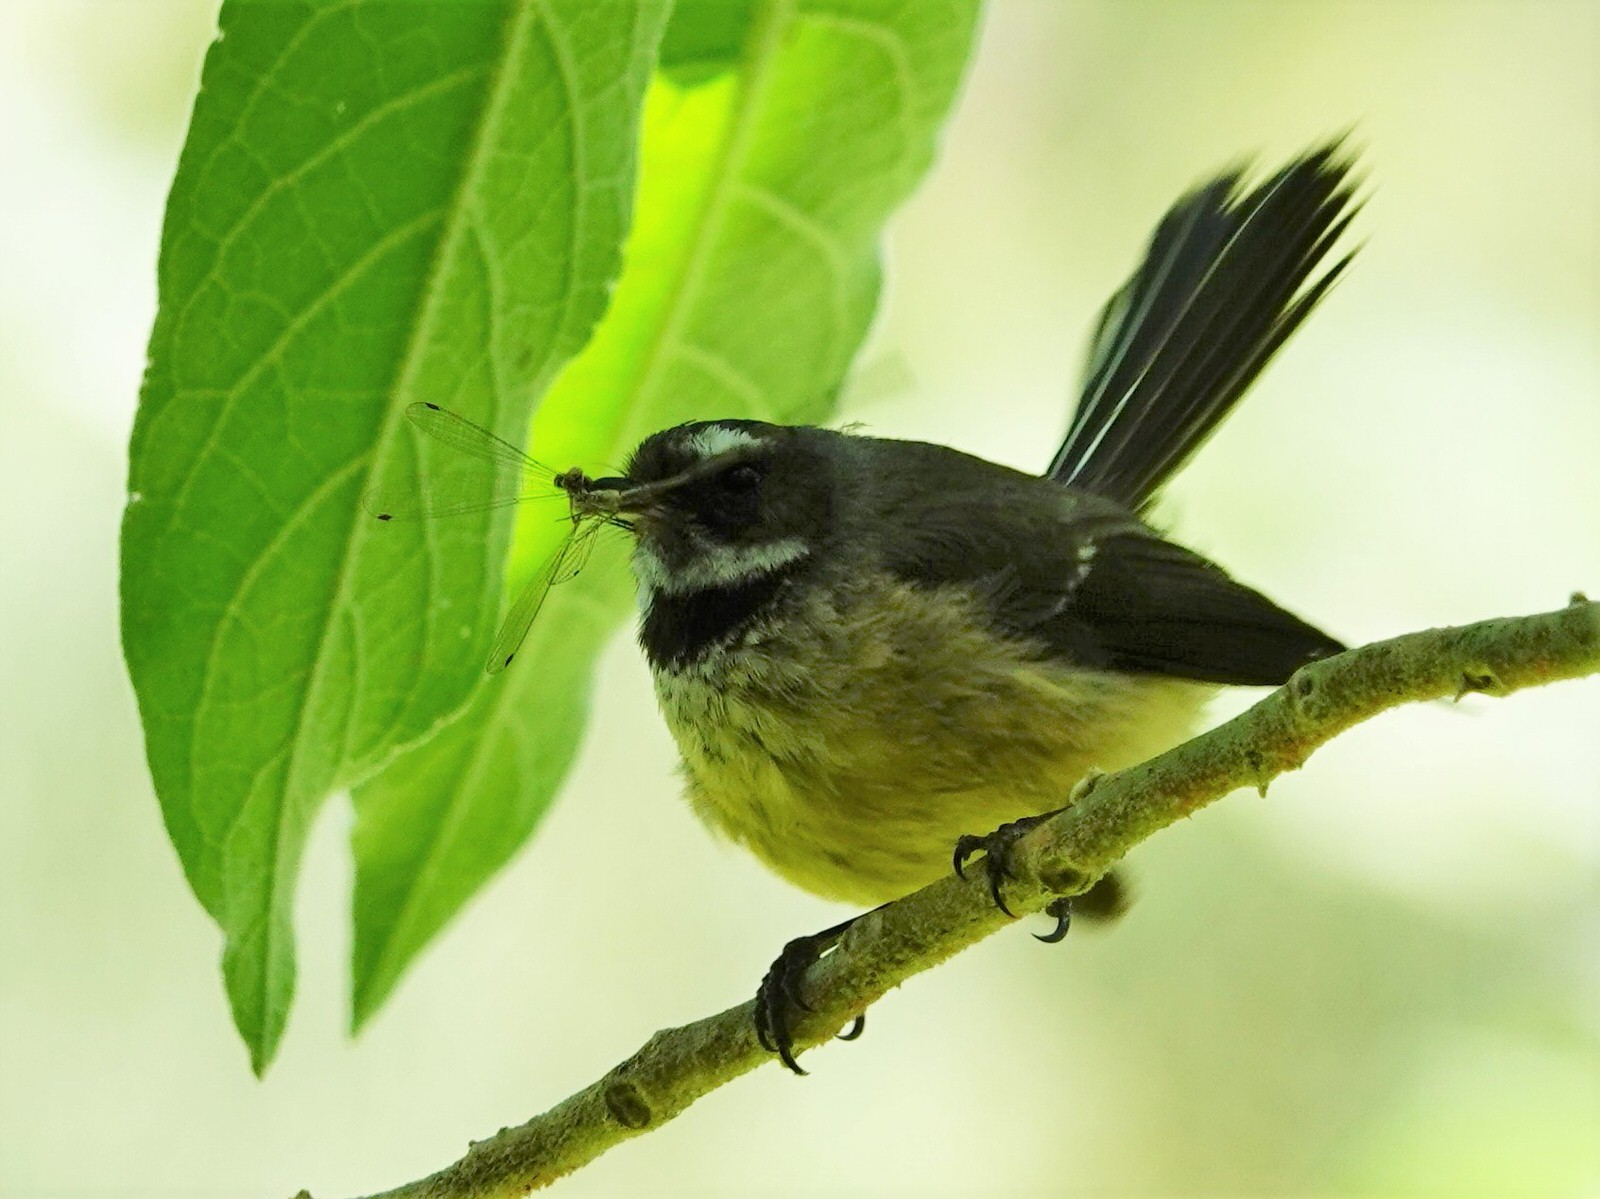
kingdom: Animalia
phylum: Chordata
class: Aves
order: Passeriformes
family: Rhipiduridae
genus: Rhipidura
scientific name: Rhipidura fuliginosa
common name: New zealand fantail
